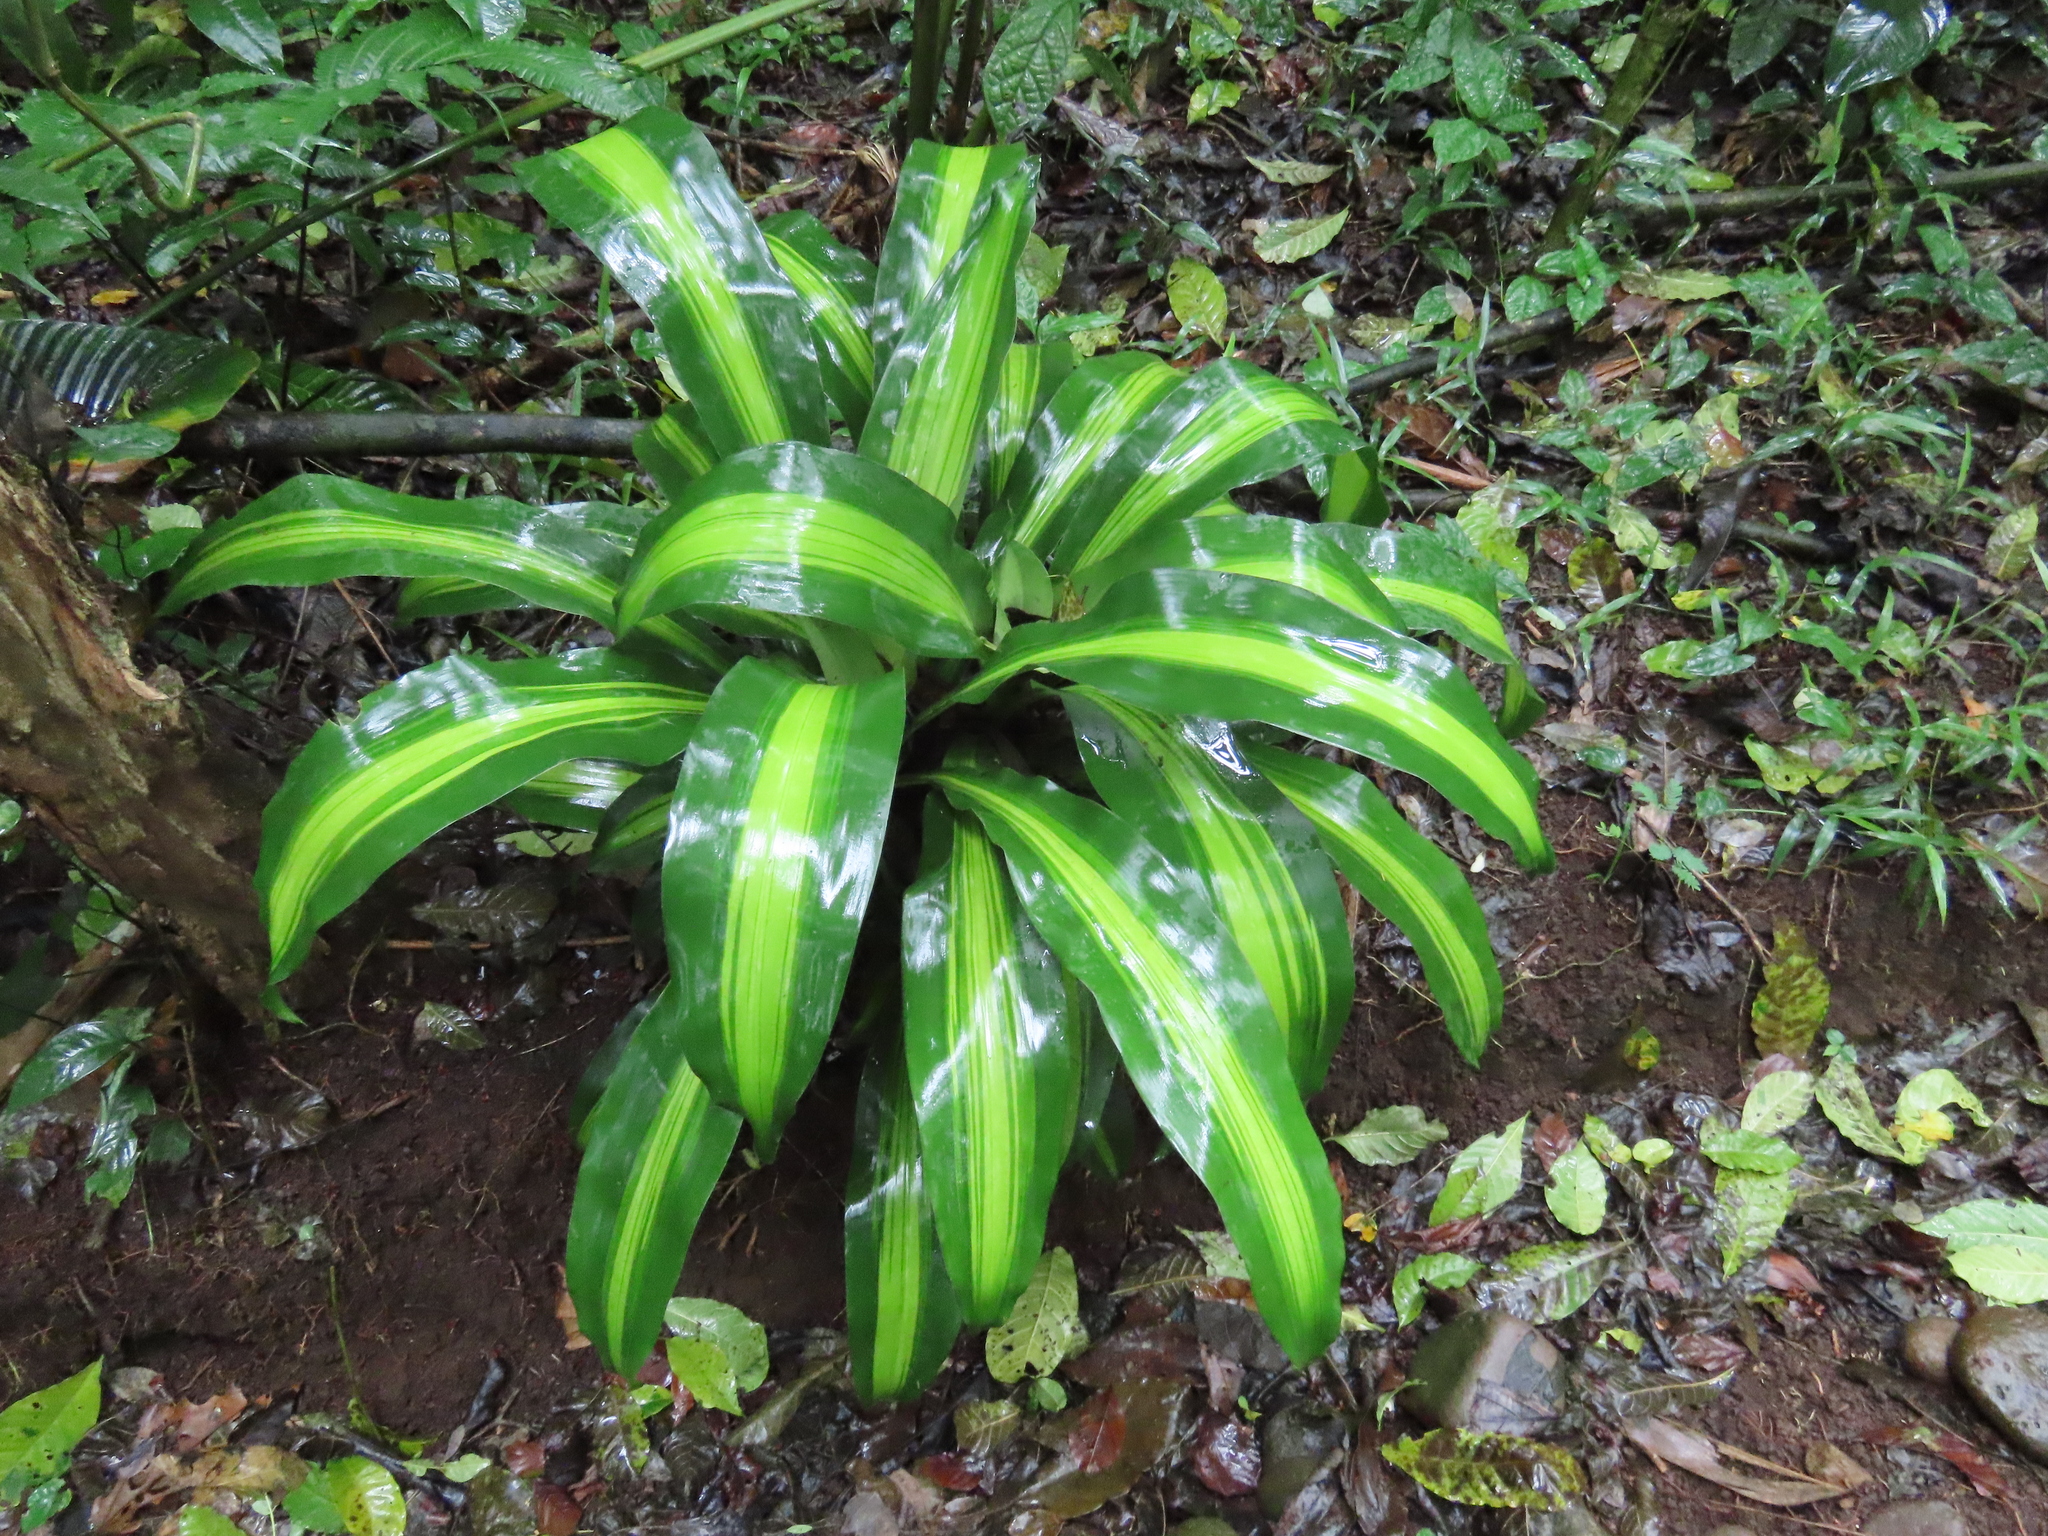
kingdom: Plantae
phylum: Tracheophyta
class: Liliopsida
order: Asparagales
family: Asparagaceae
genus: Dracaena
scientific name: Dracaena fragrans
